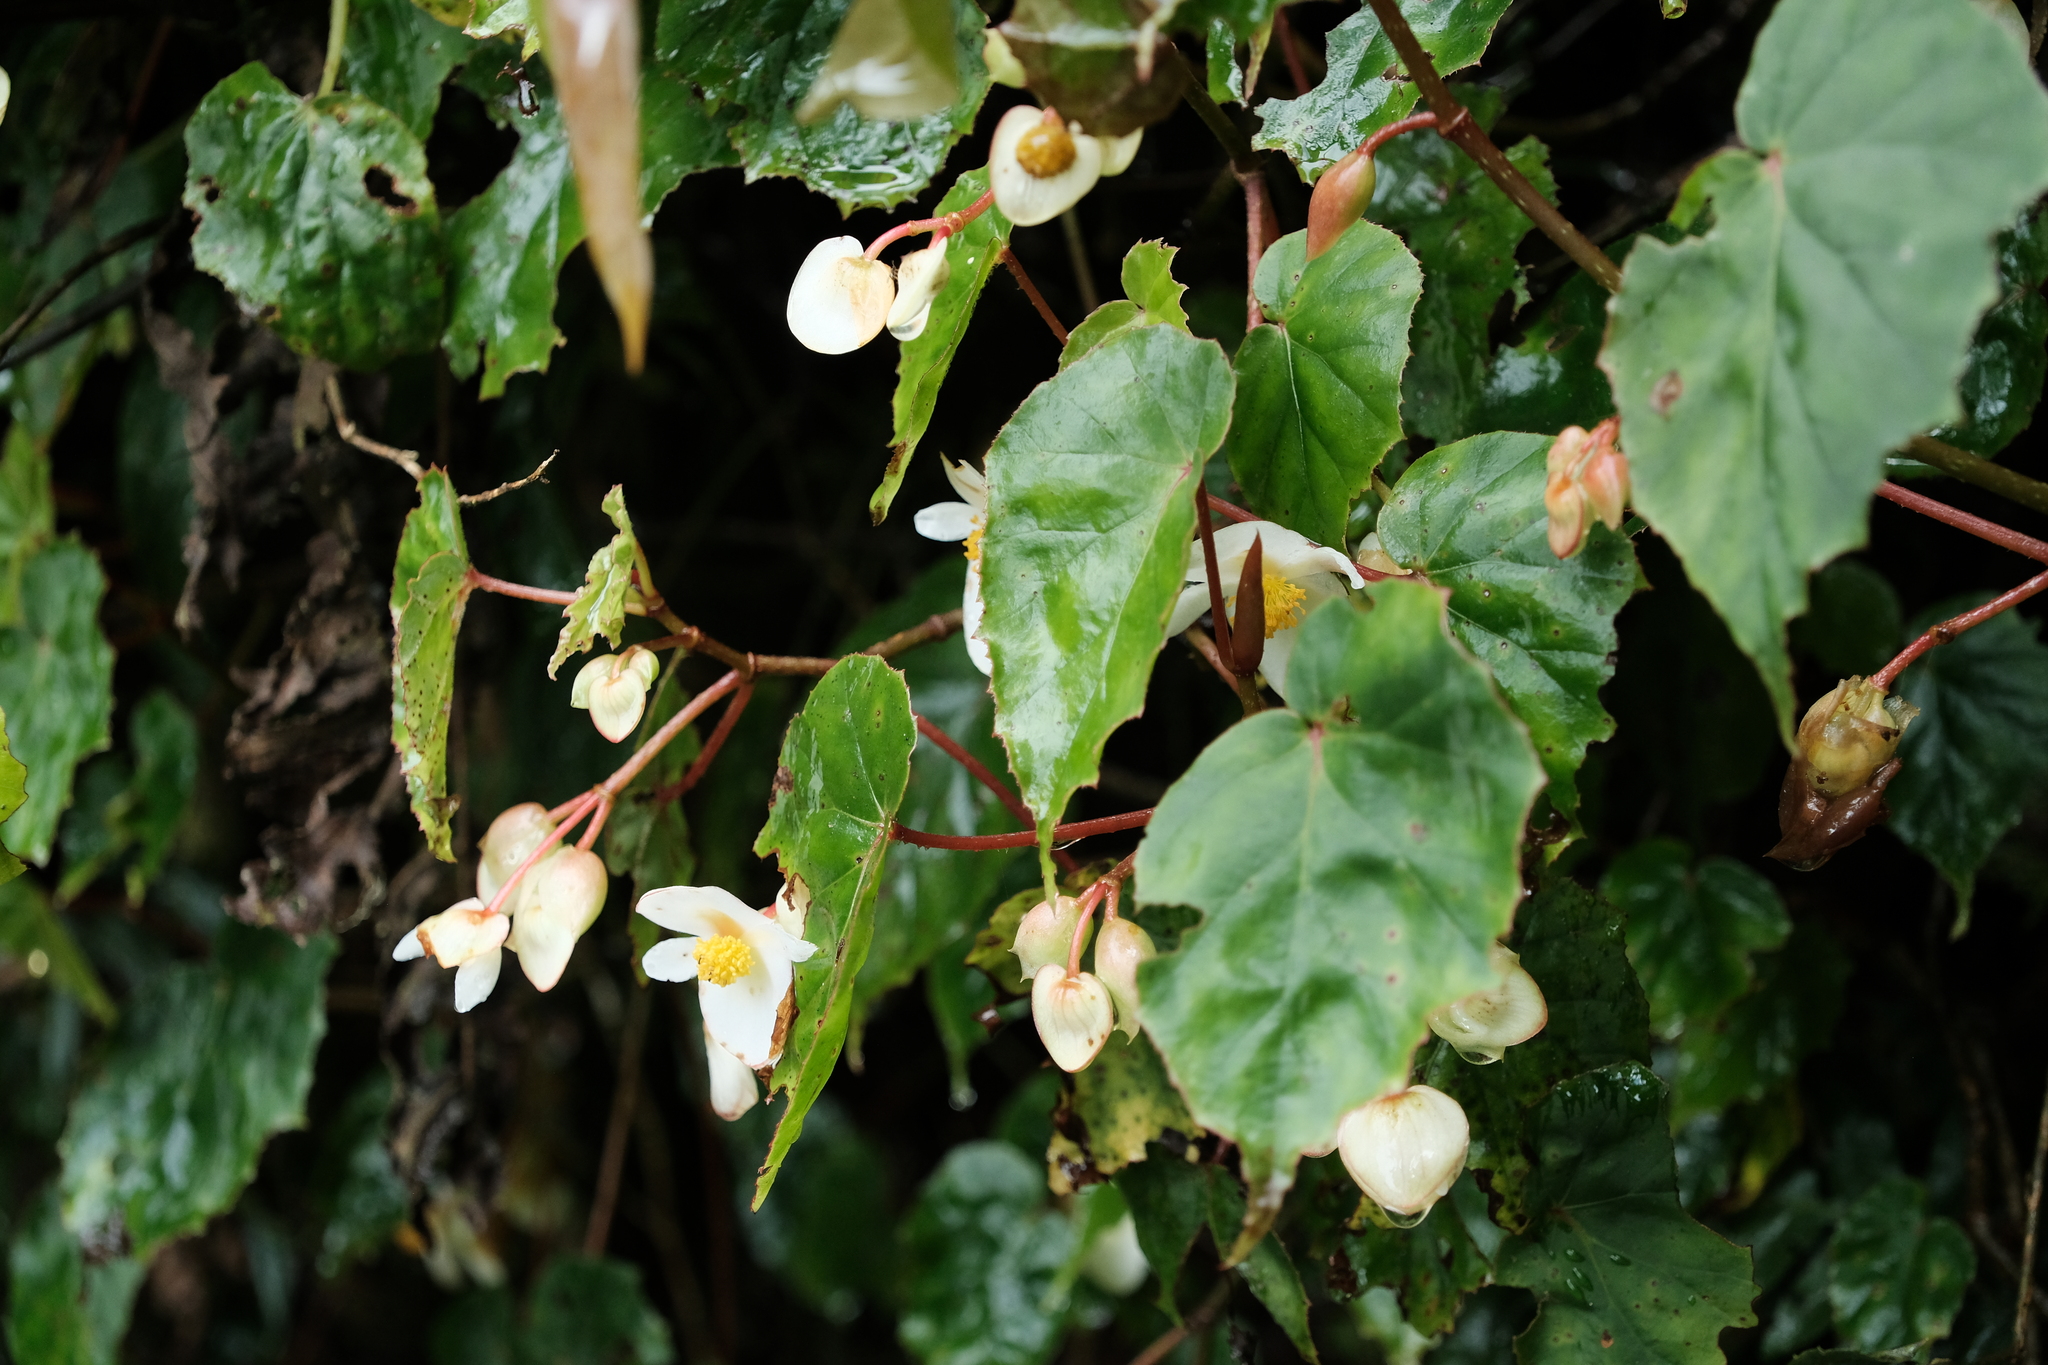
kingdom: Plantae
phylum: Tracheophyta
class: Magnoliopsida
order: Cucurbitales
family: Begoniaceae
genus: Begonia
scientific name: Begonia meyeri-johannis
